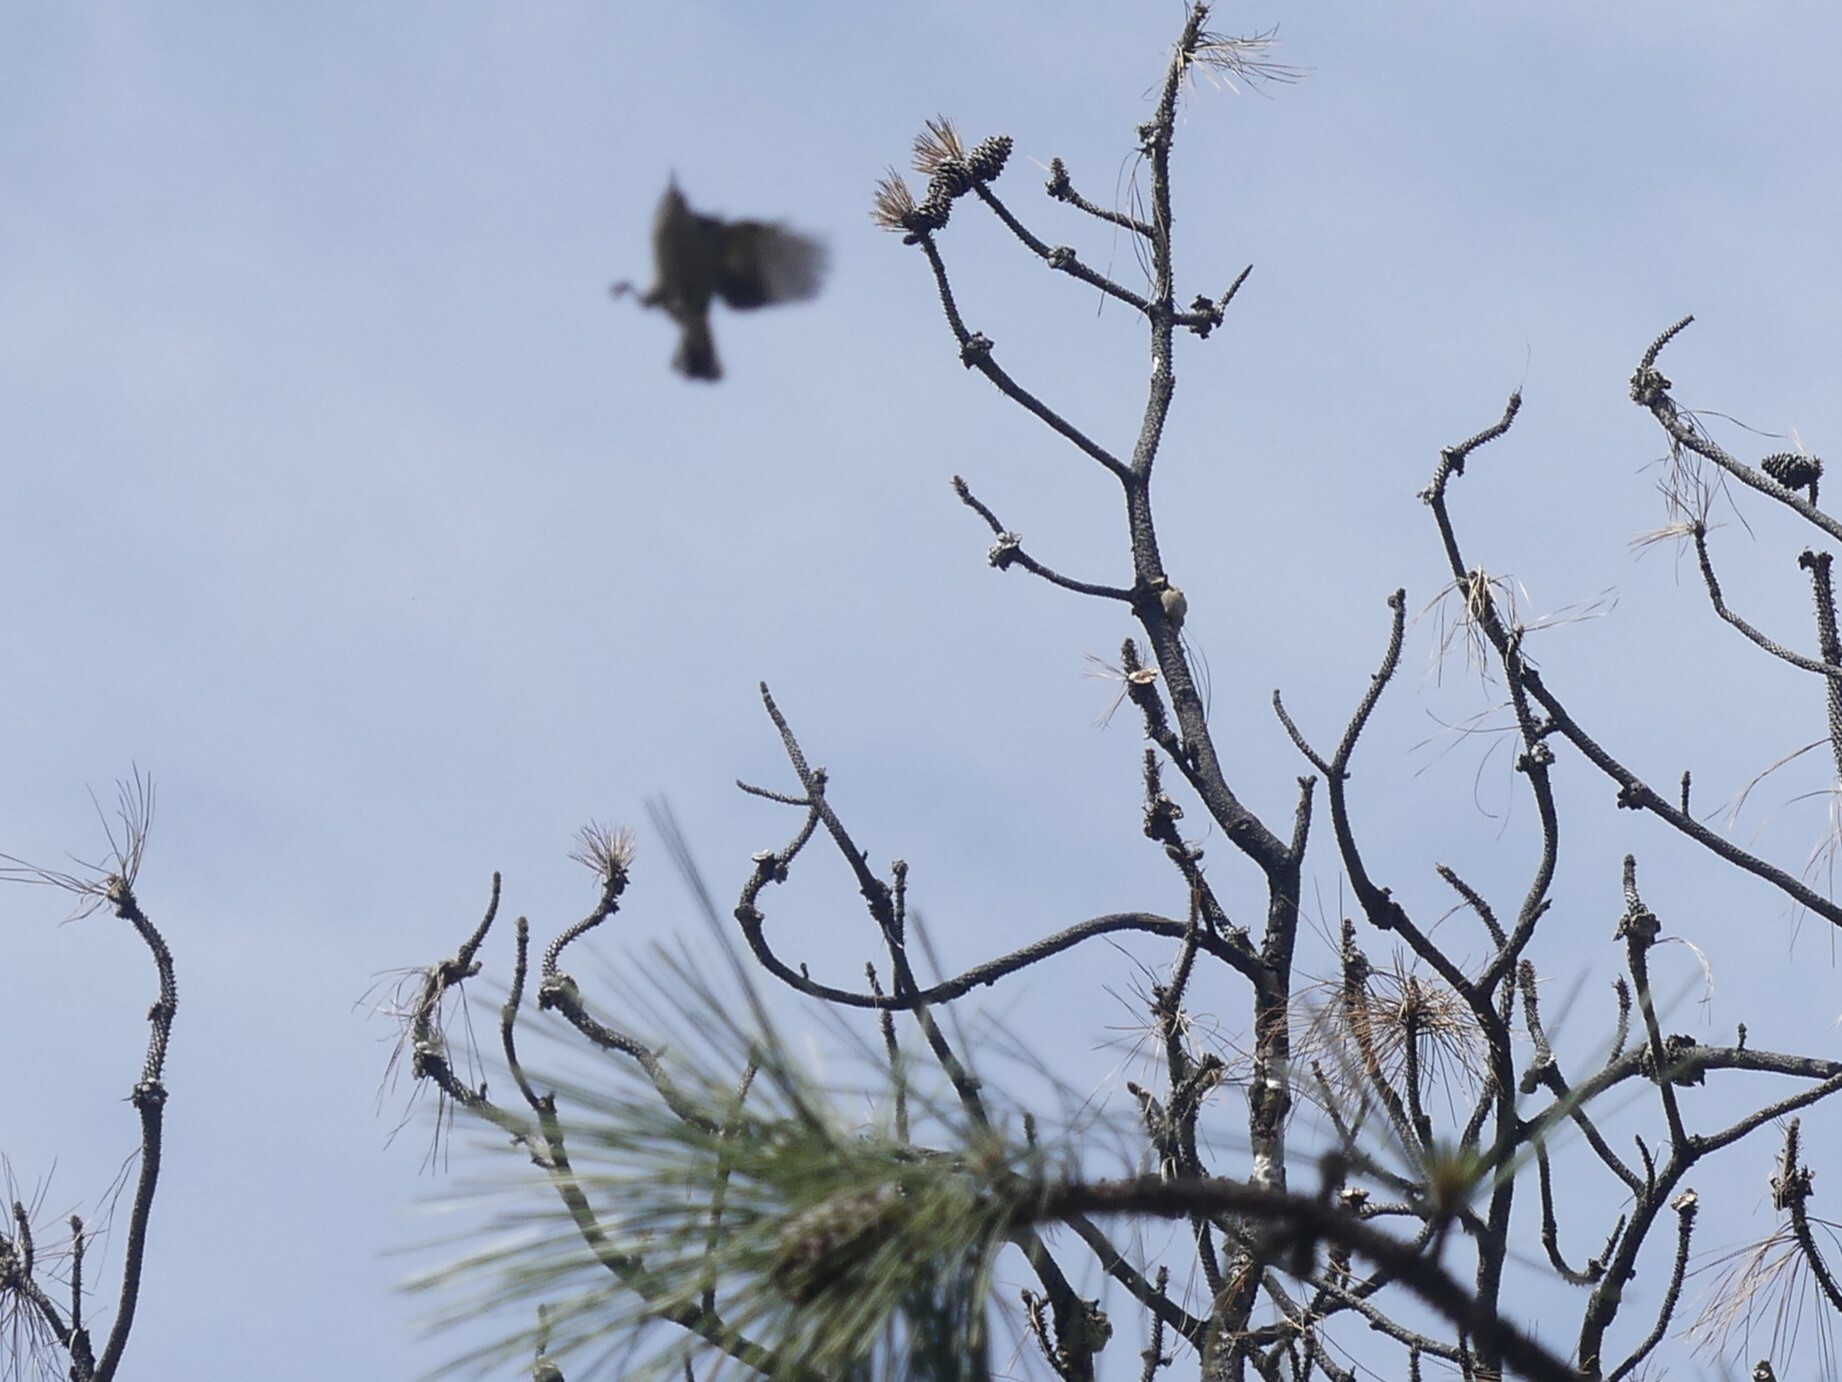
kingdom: Animalia
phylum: Chordata
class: Aves
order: Passeriformes
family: Sittidae
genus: Sitta
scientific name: Sitta pygmaea
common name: Pygmy nuthatch
